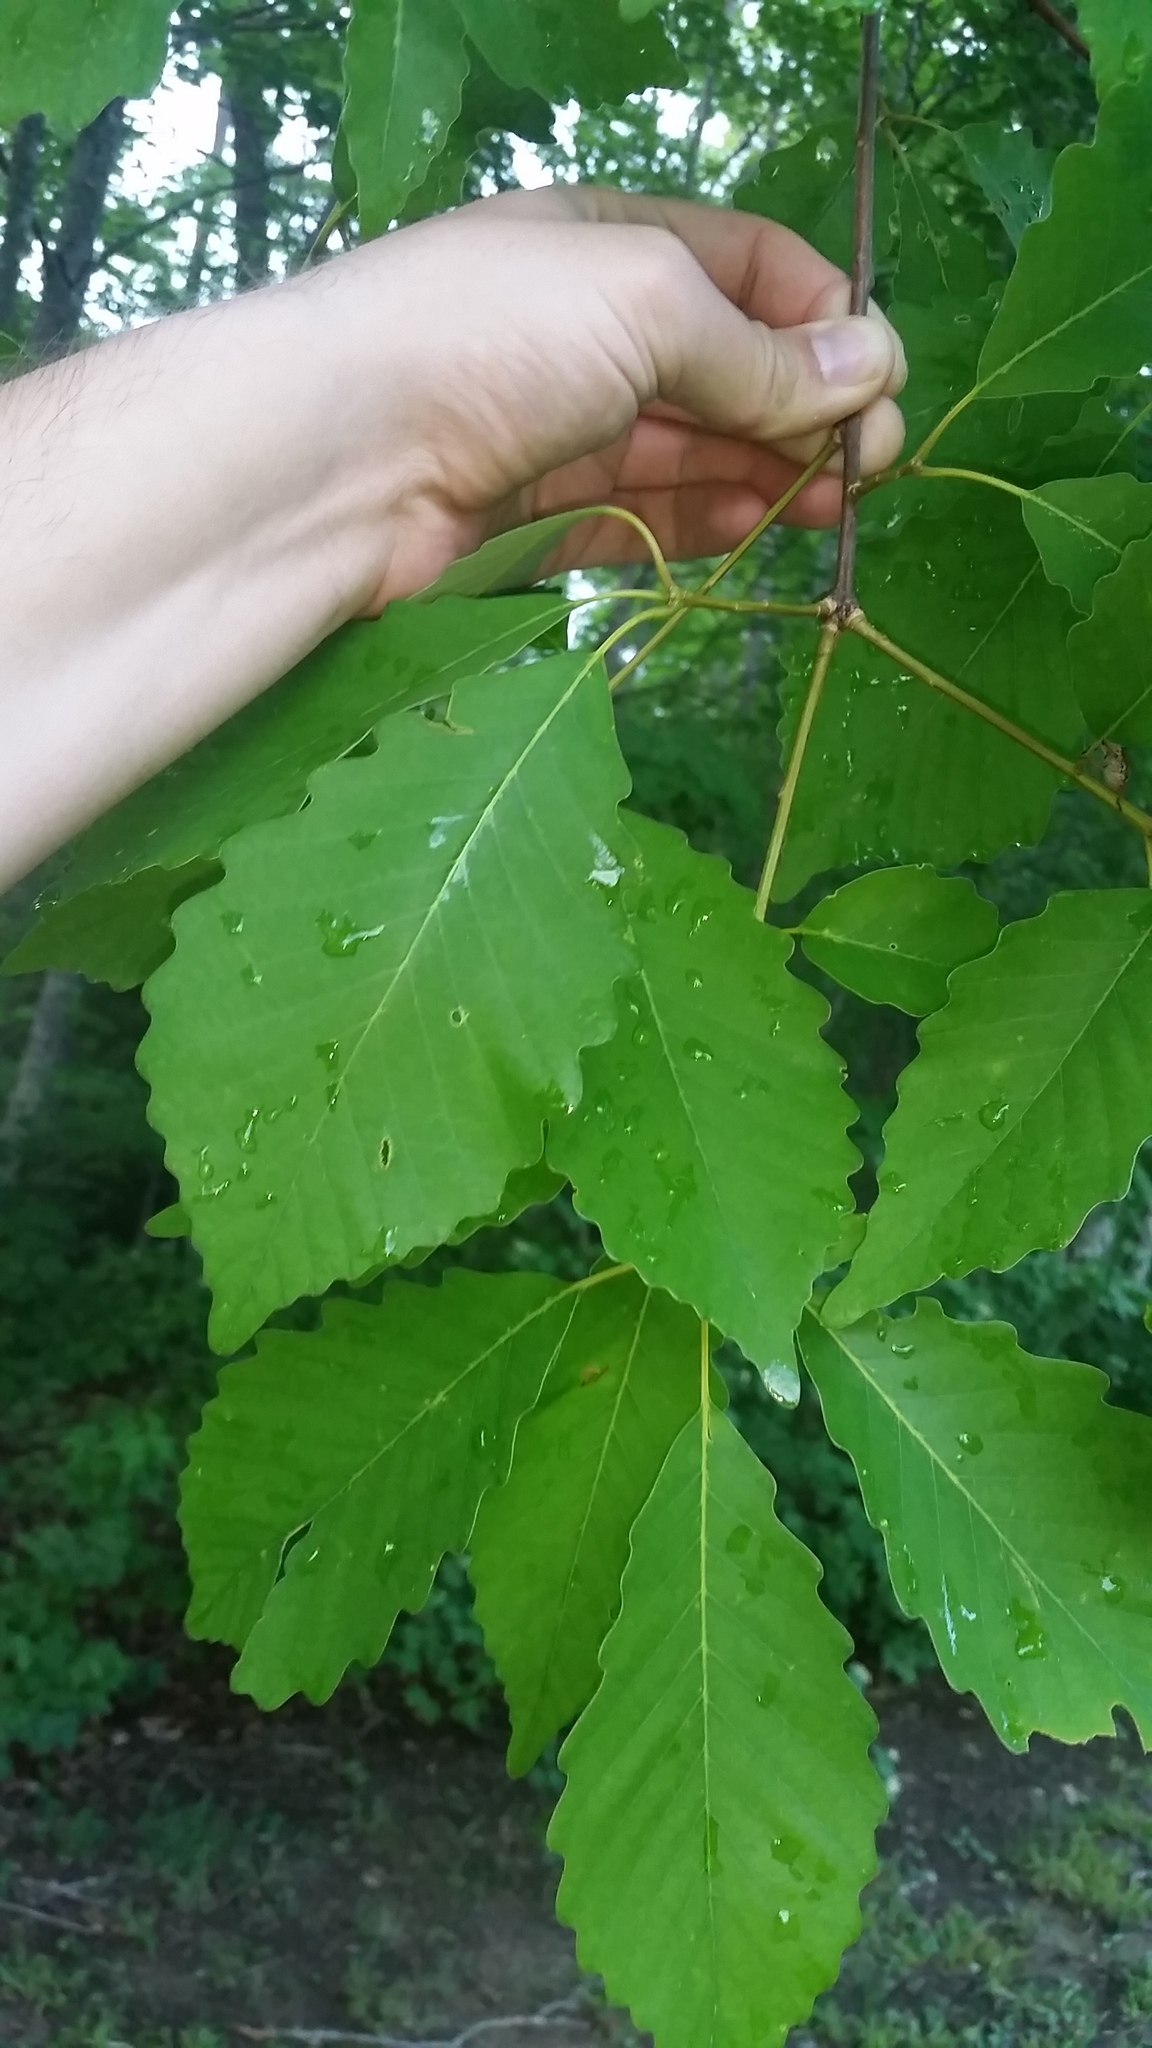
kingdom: Plantae
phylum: Tracheophyta
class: Magnoliopsida
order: Fagales
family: Fagaceae
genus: Quercus
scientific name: Quercus montana
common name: Chestnut oak
